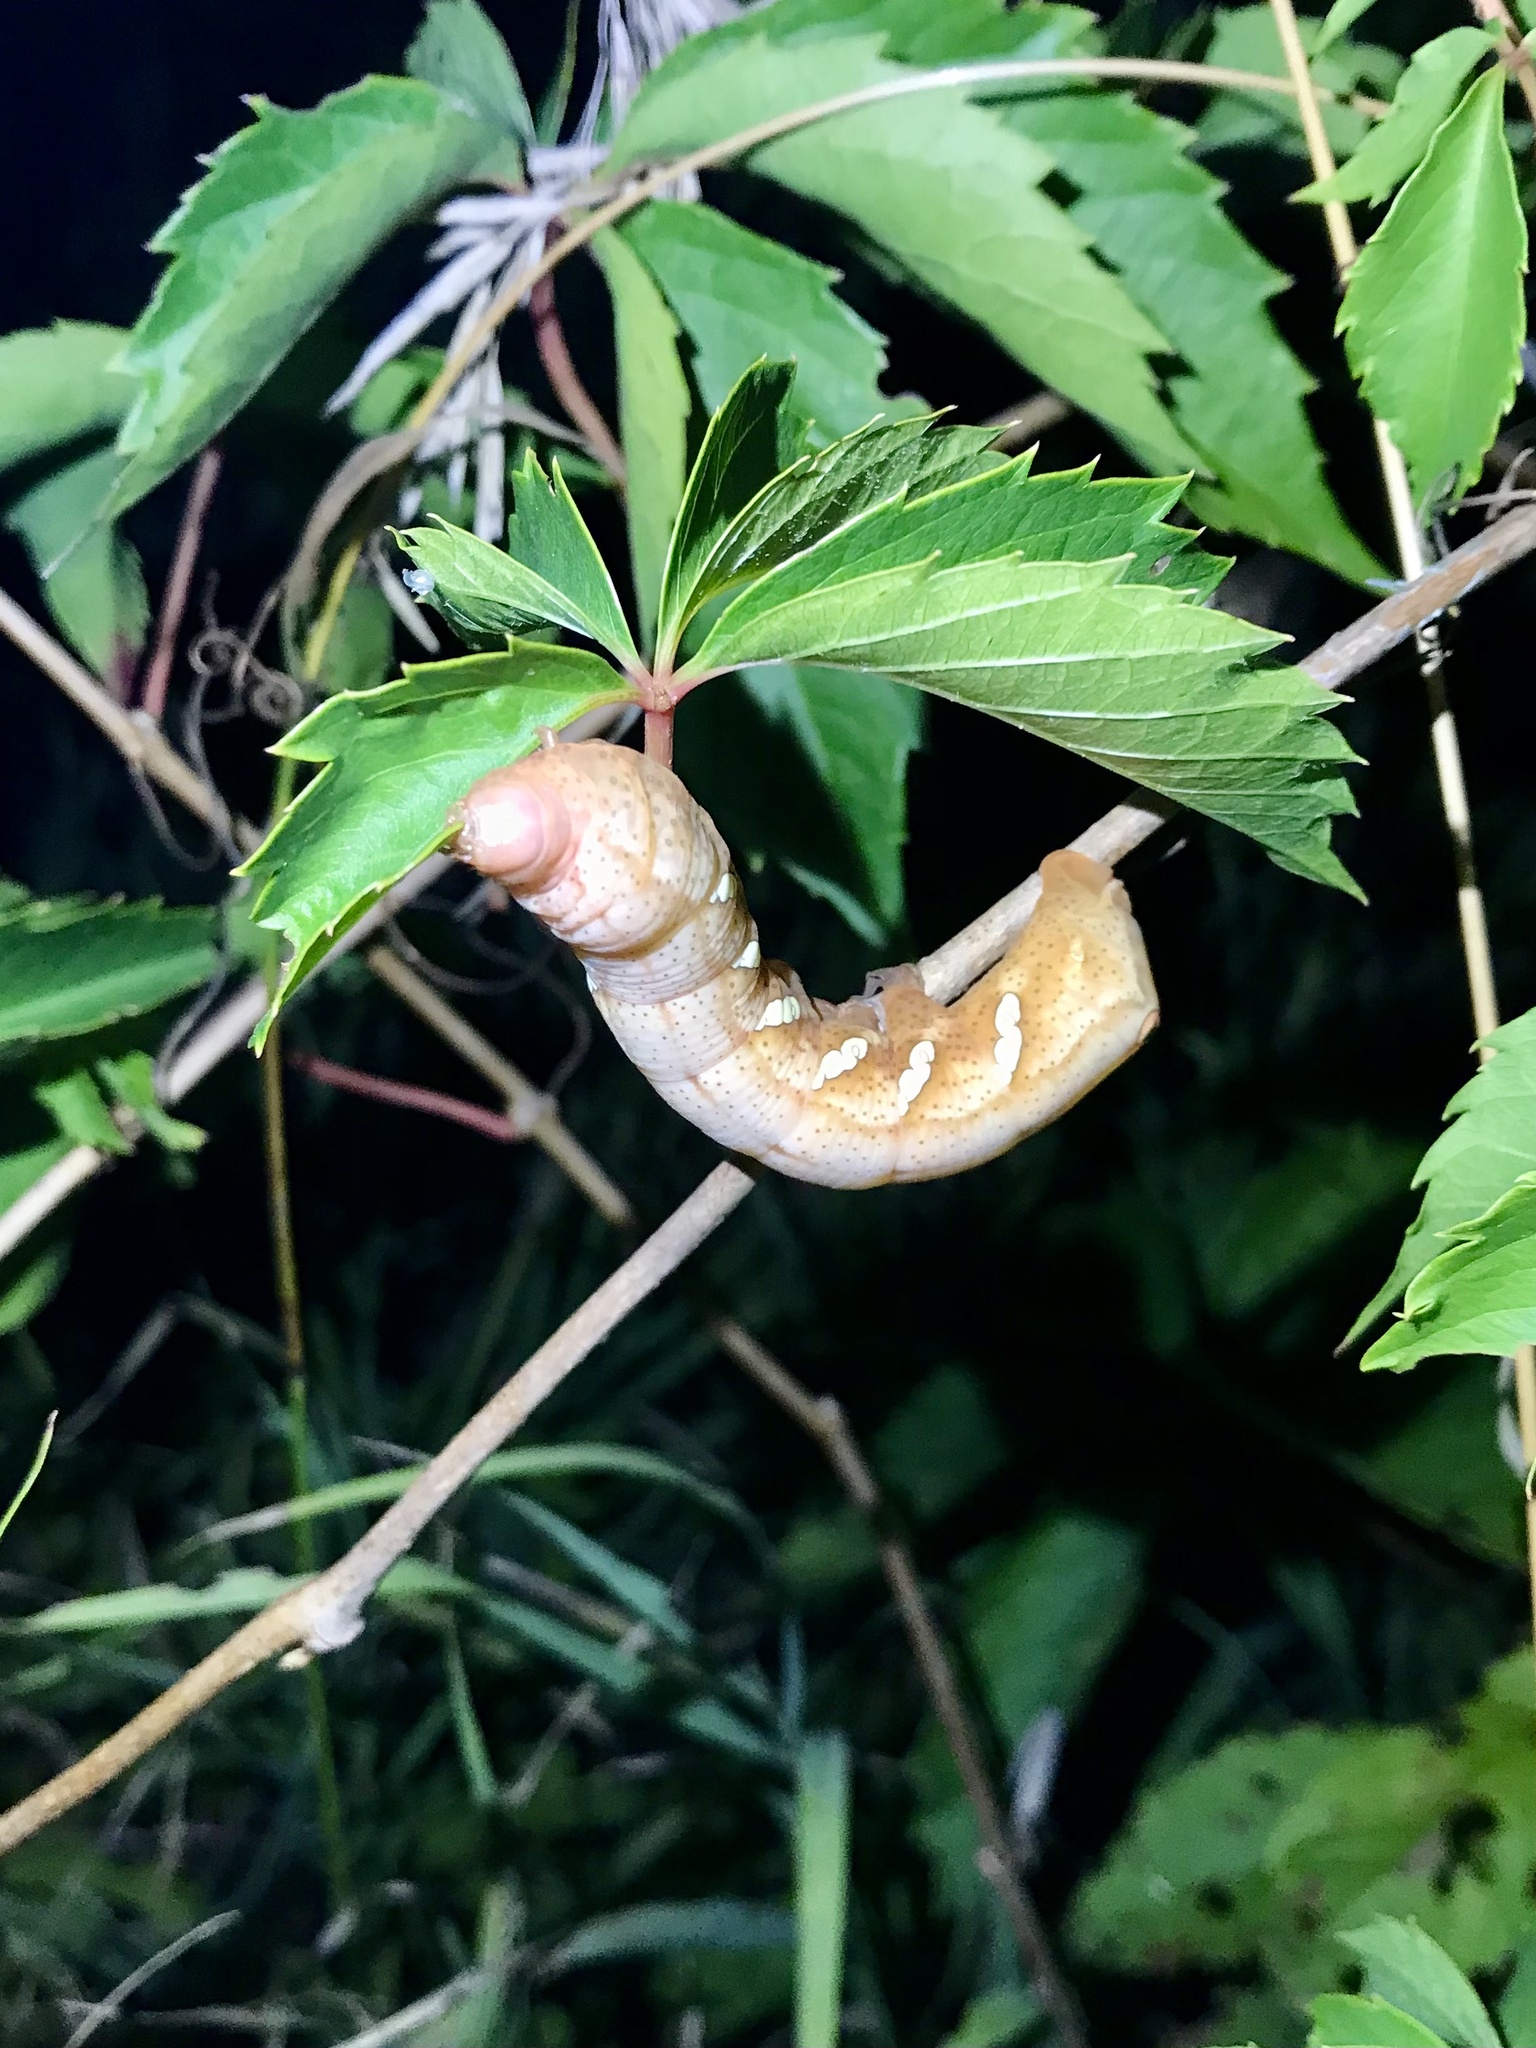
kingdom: Animalia
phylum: Arthropoda
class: Insecta
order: Lepidoptera
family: Sphingidae
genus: Eumorpha
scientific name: Eumorpha achemon
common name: Achemon sphinx
